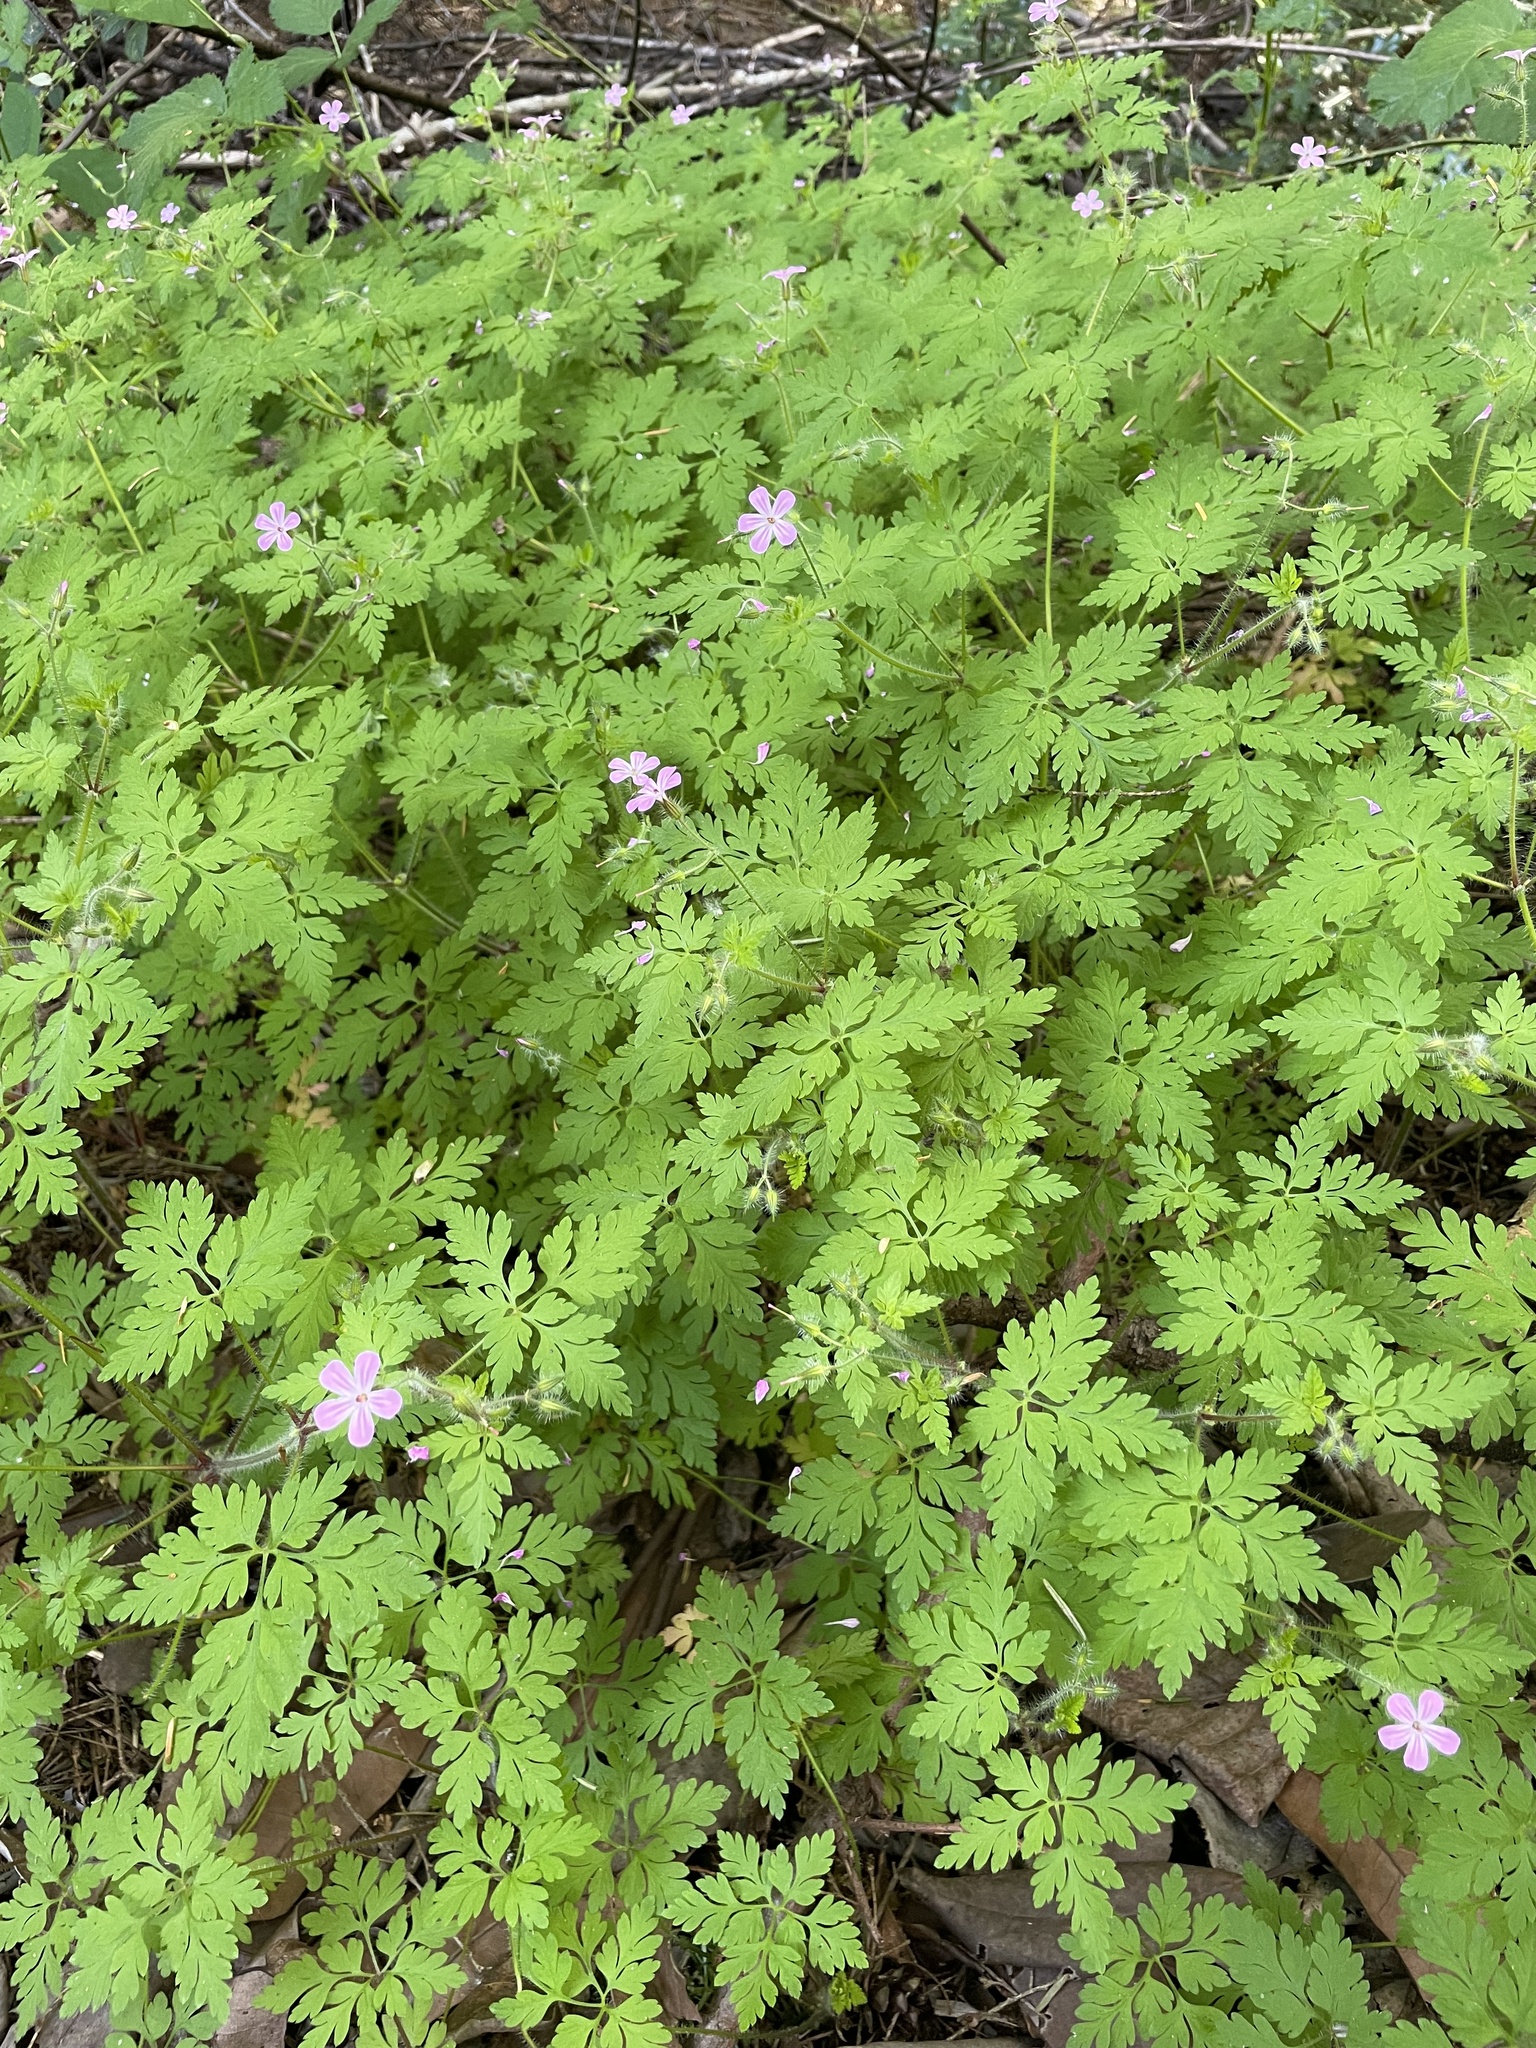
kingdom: Plantae
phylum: Tracheophyta
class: Magnoliopsida
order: Geraniales
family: Geraniaceae
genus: Geranium
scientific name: Geranium robertianum
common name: Herb-robert
